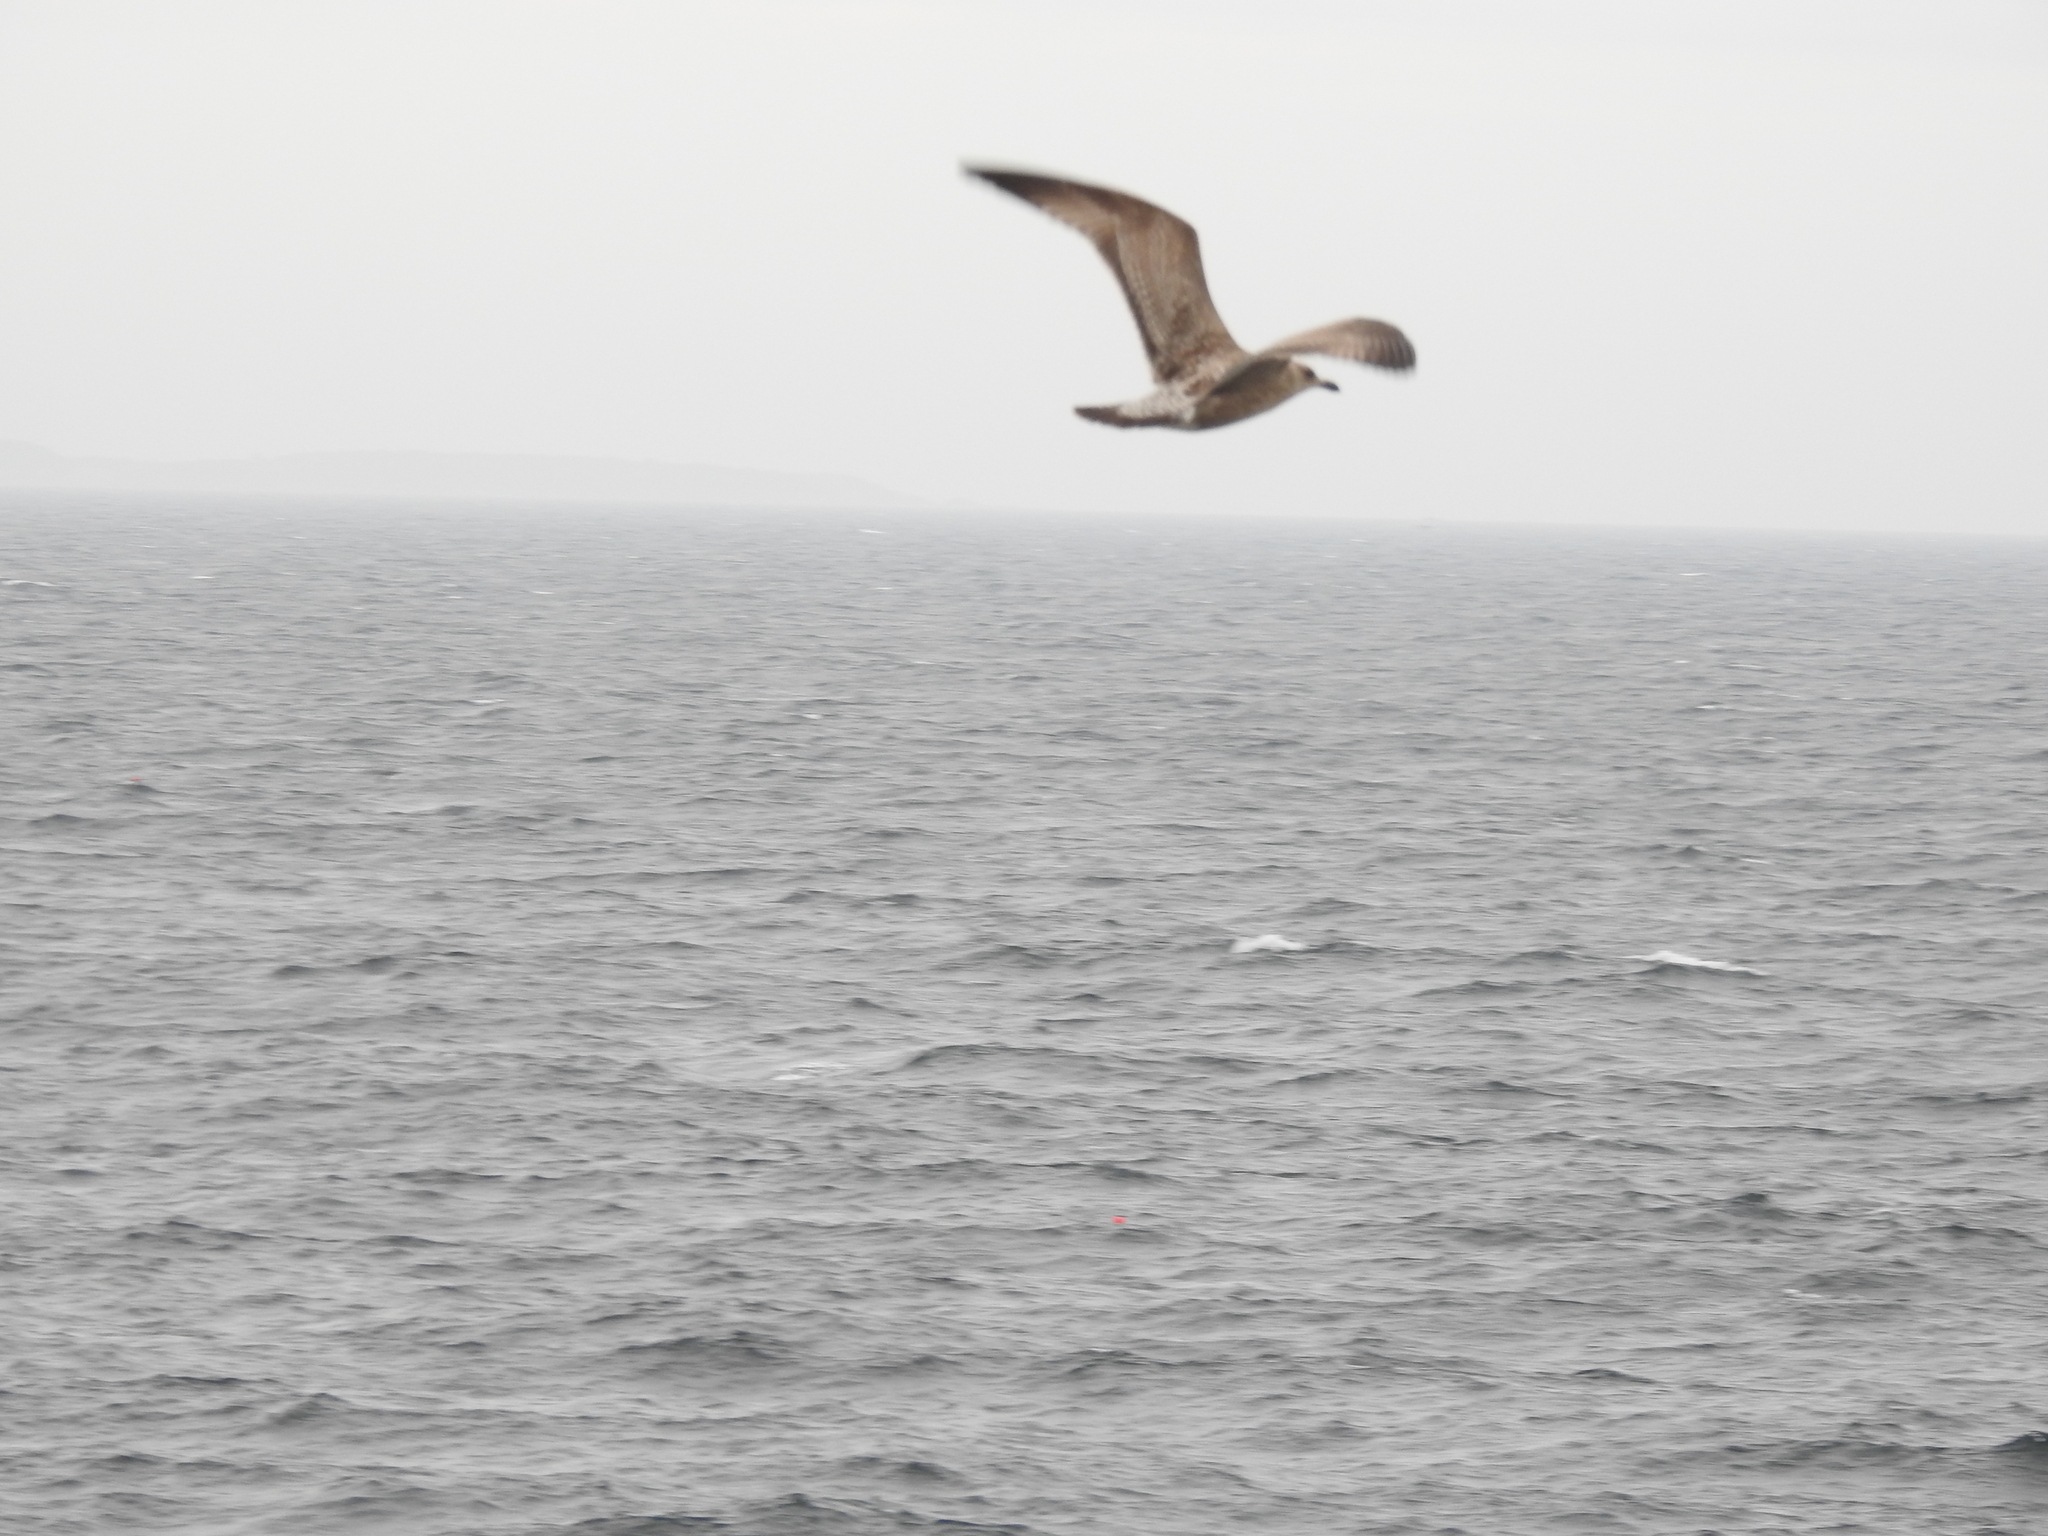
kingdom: Animalia
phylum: Chordata
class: Aves
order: Charadriiformes
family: Laridae
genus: Larus
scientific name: Larus argentatus
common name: Herring gull
